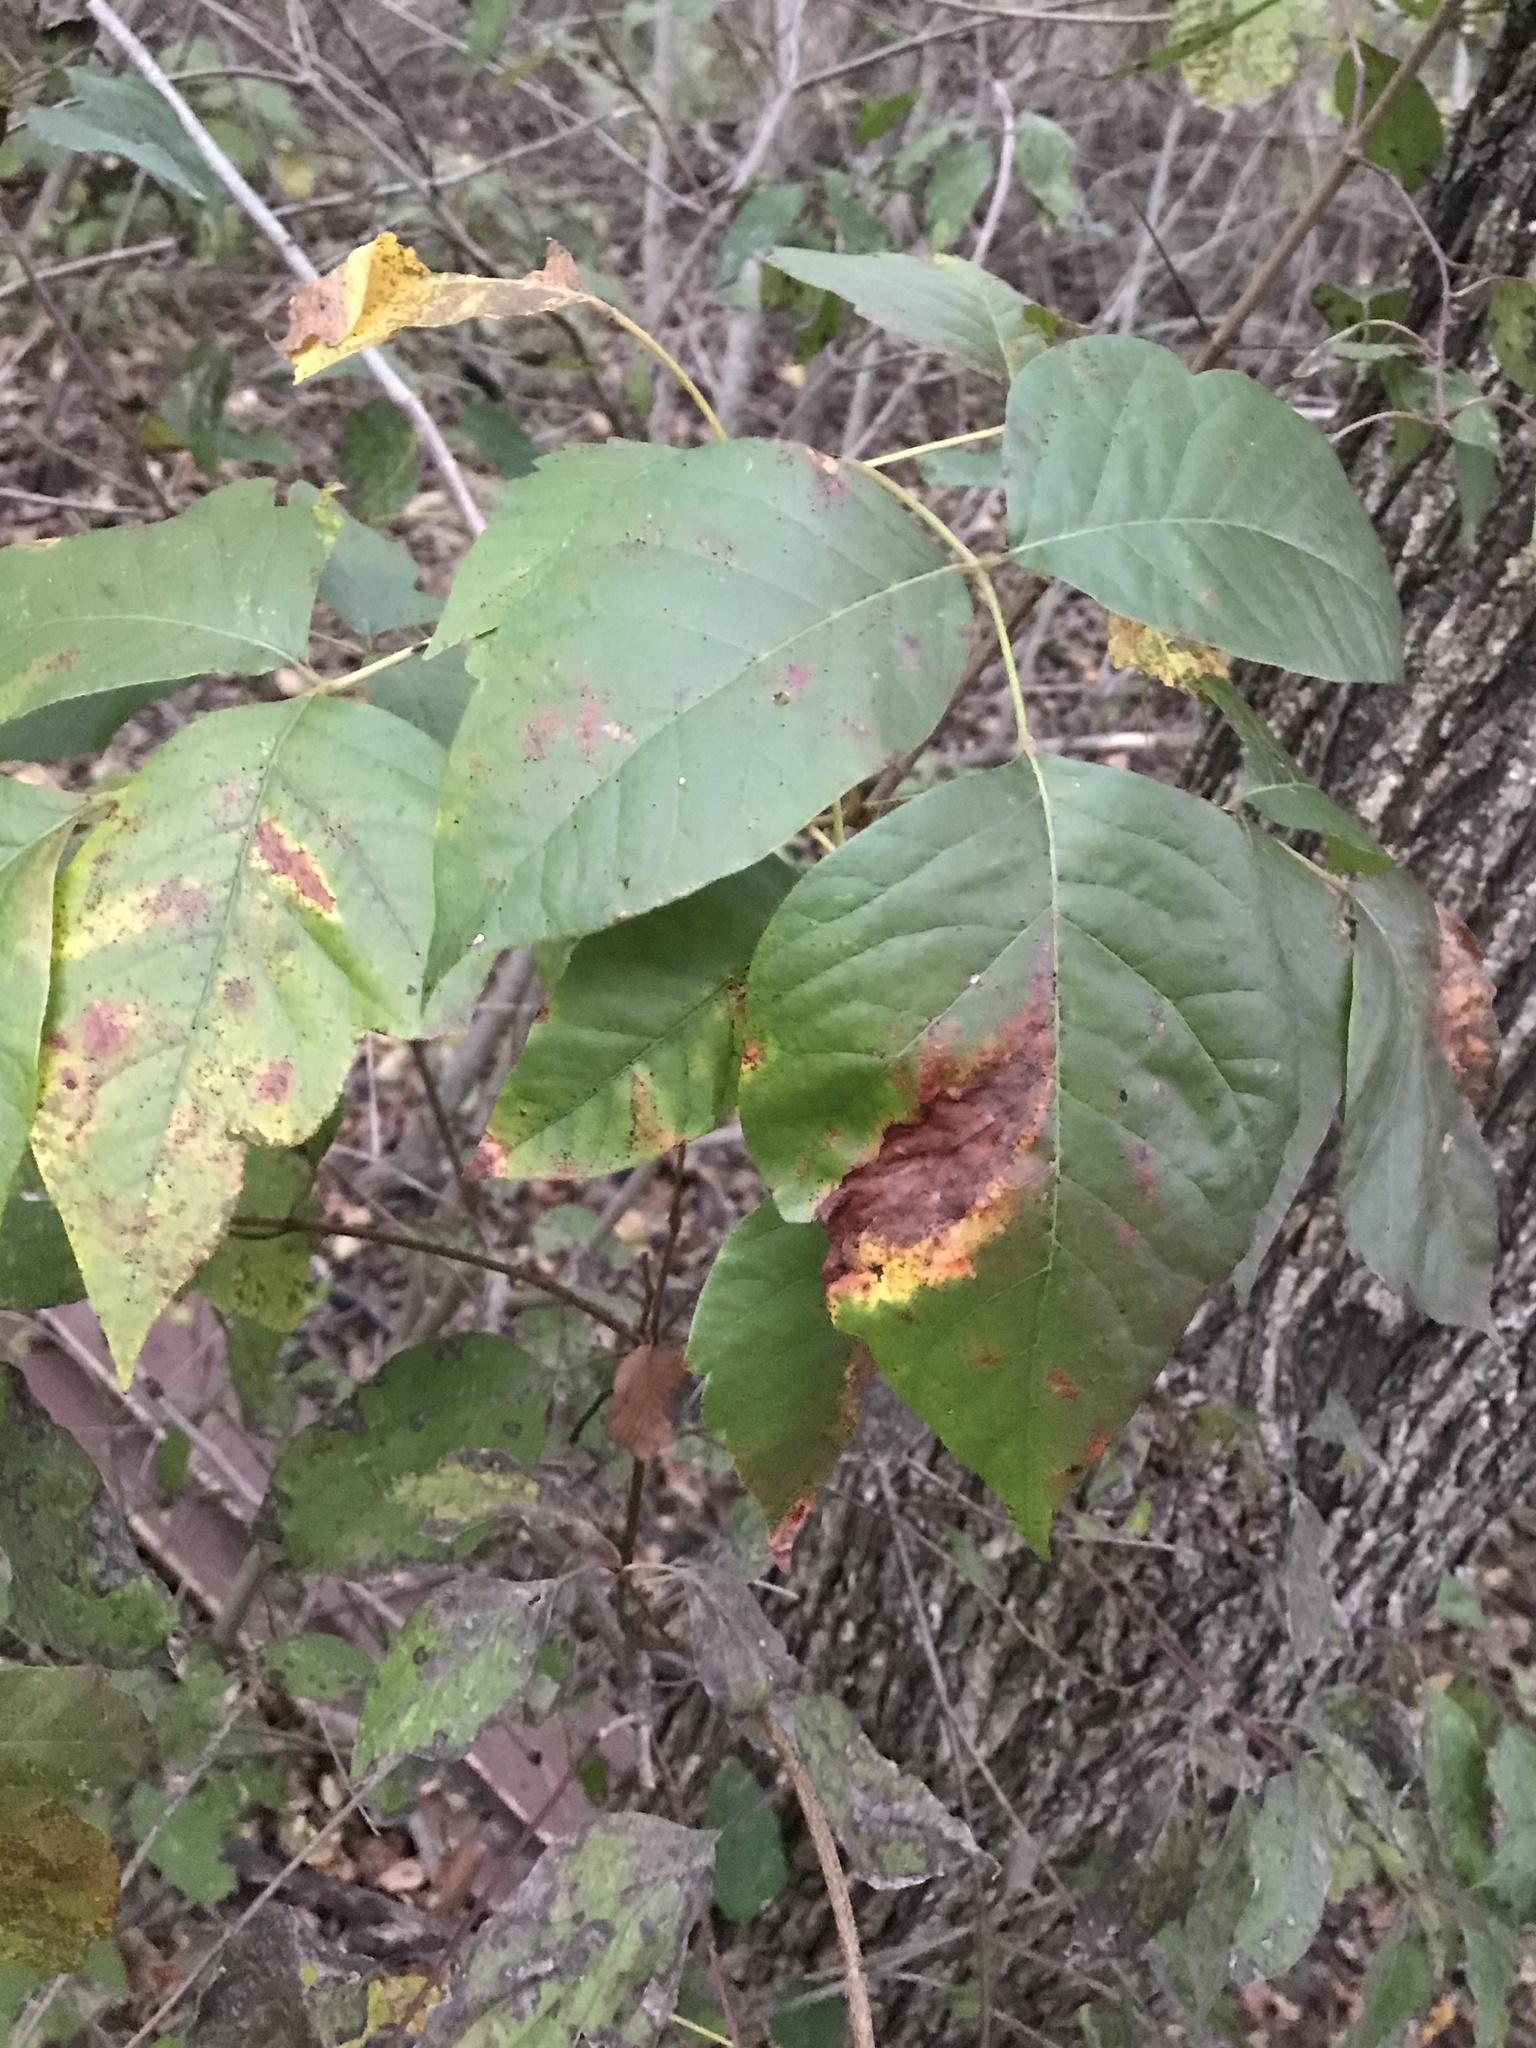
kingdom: Plantae
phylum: Tracheophyta
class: Magnoliopsida
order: Sapindales
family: Anacardiaceae
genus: Toxicodendron
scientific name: Toxicodendron radicans
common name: Poison ivy
